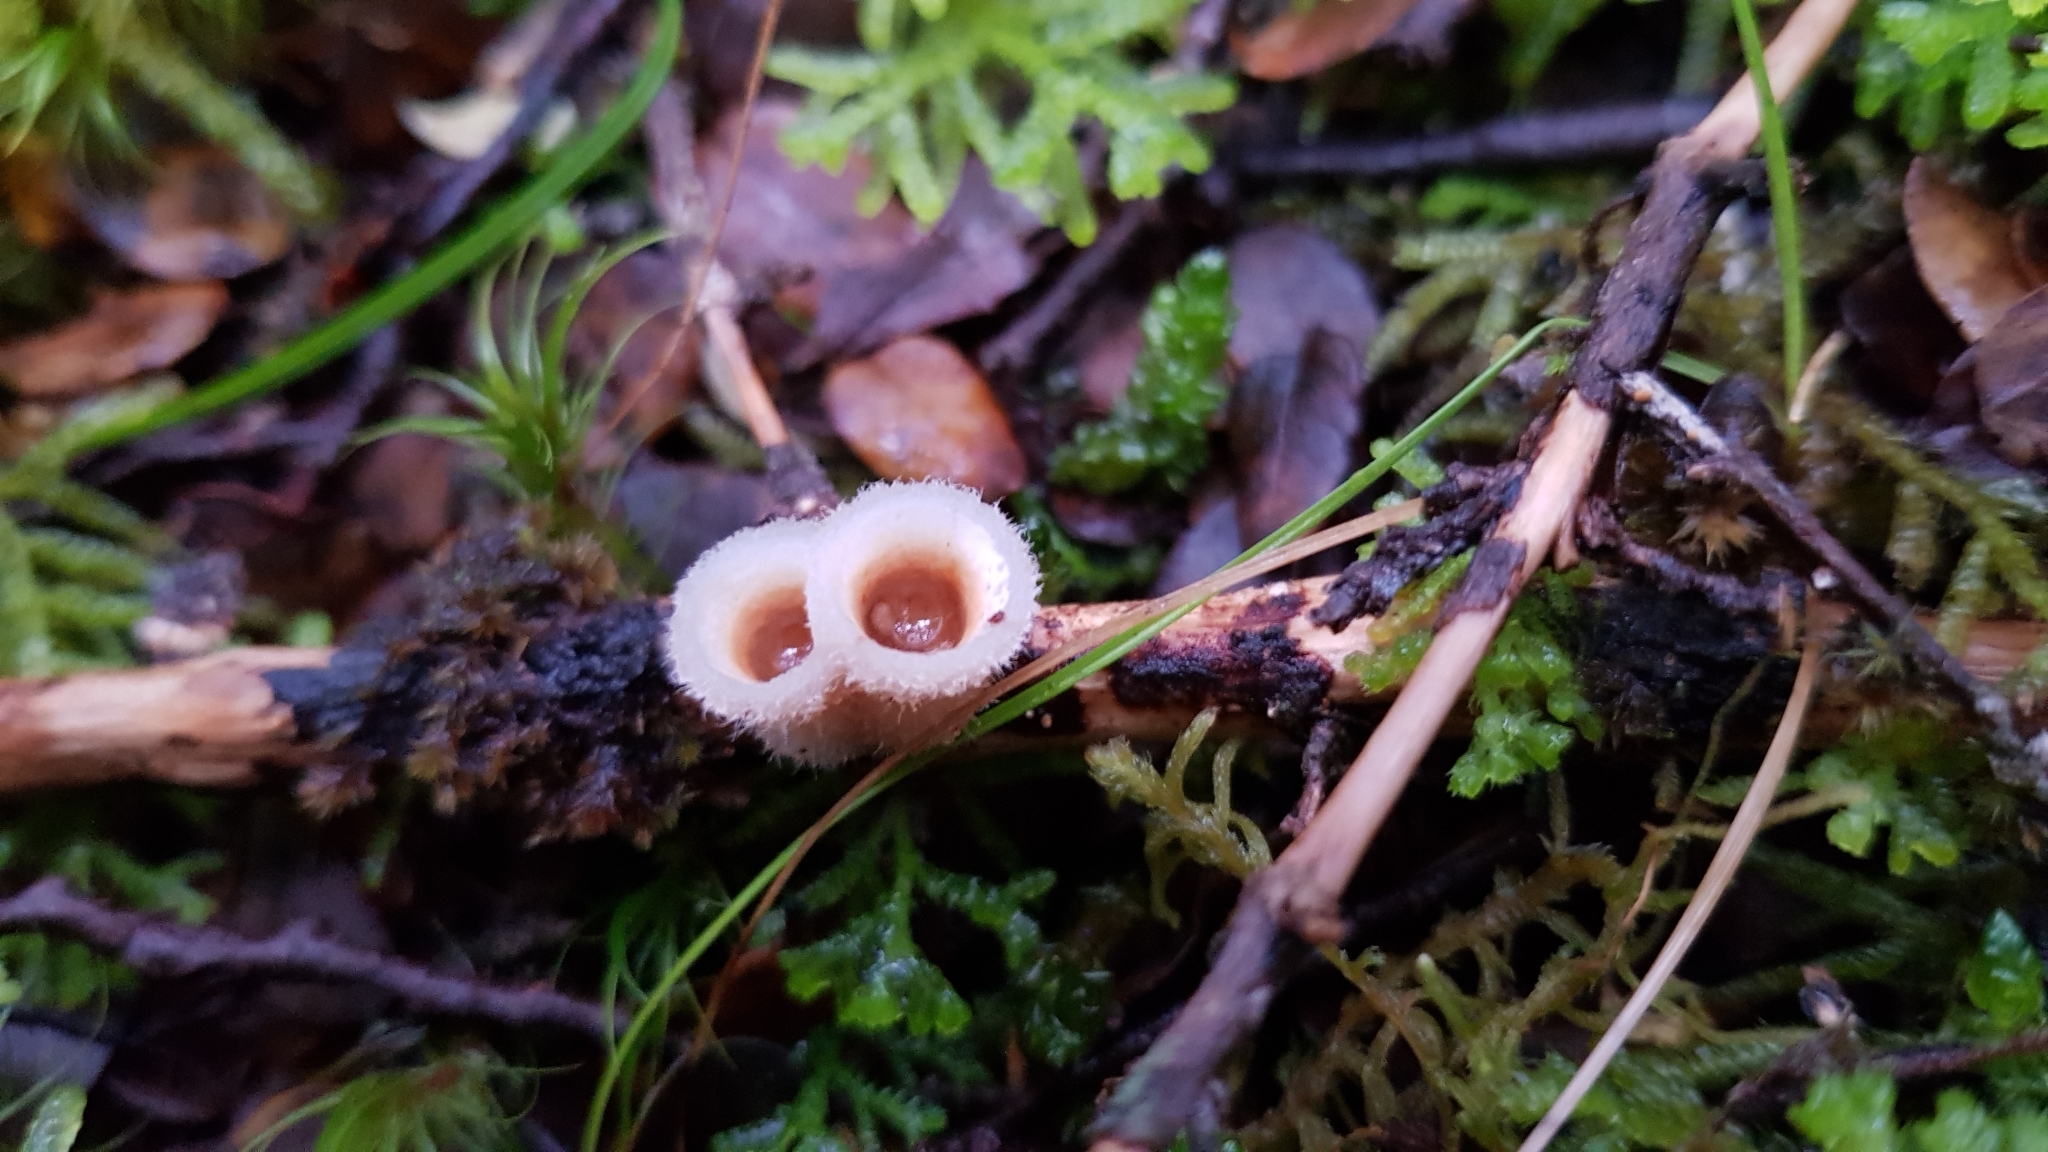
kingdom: Fungi
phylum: Basidiomycota
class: Agaricomycetes
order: Agaricales
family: Agaricaceae
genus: Nidula
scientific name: Nidula candida
